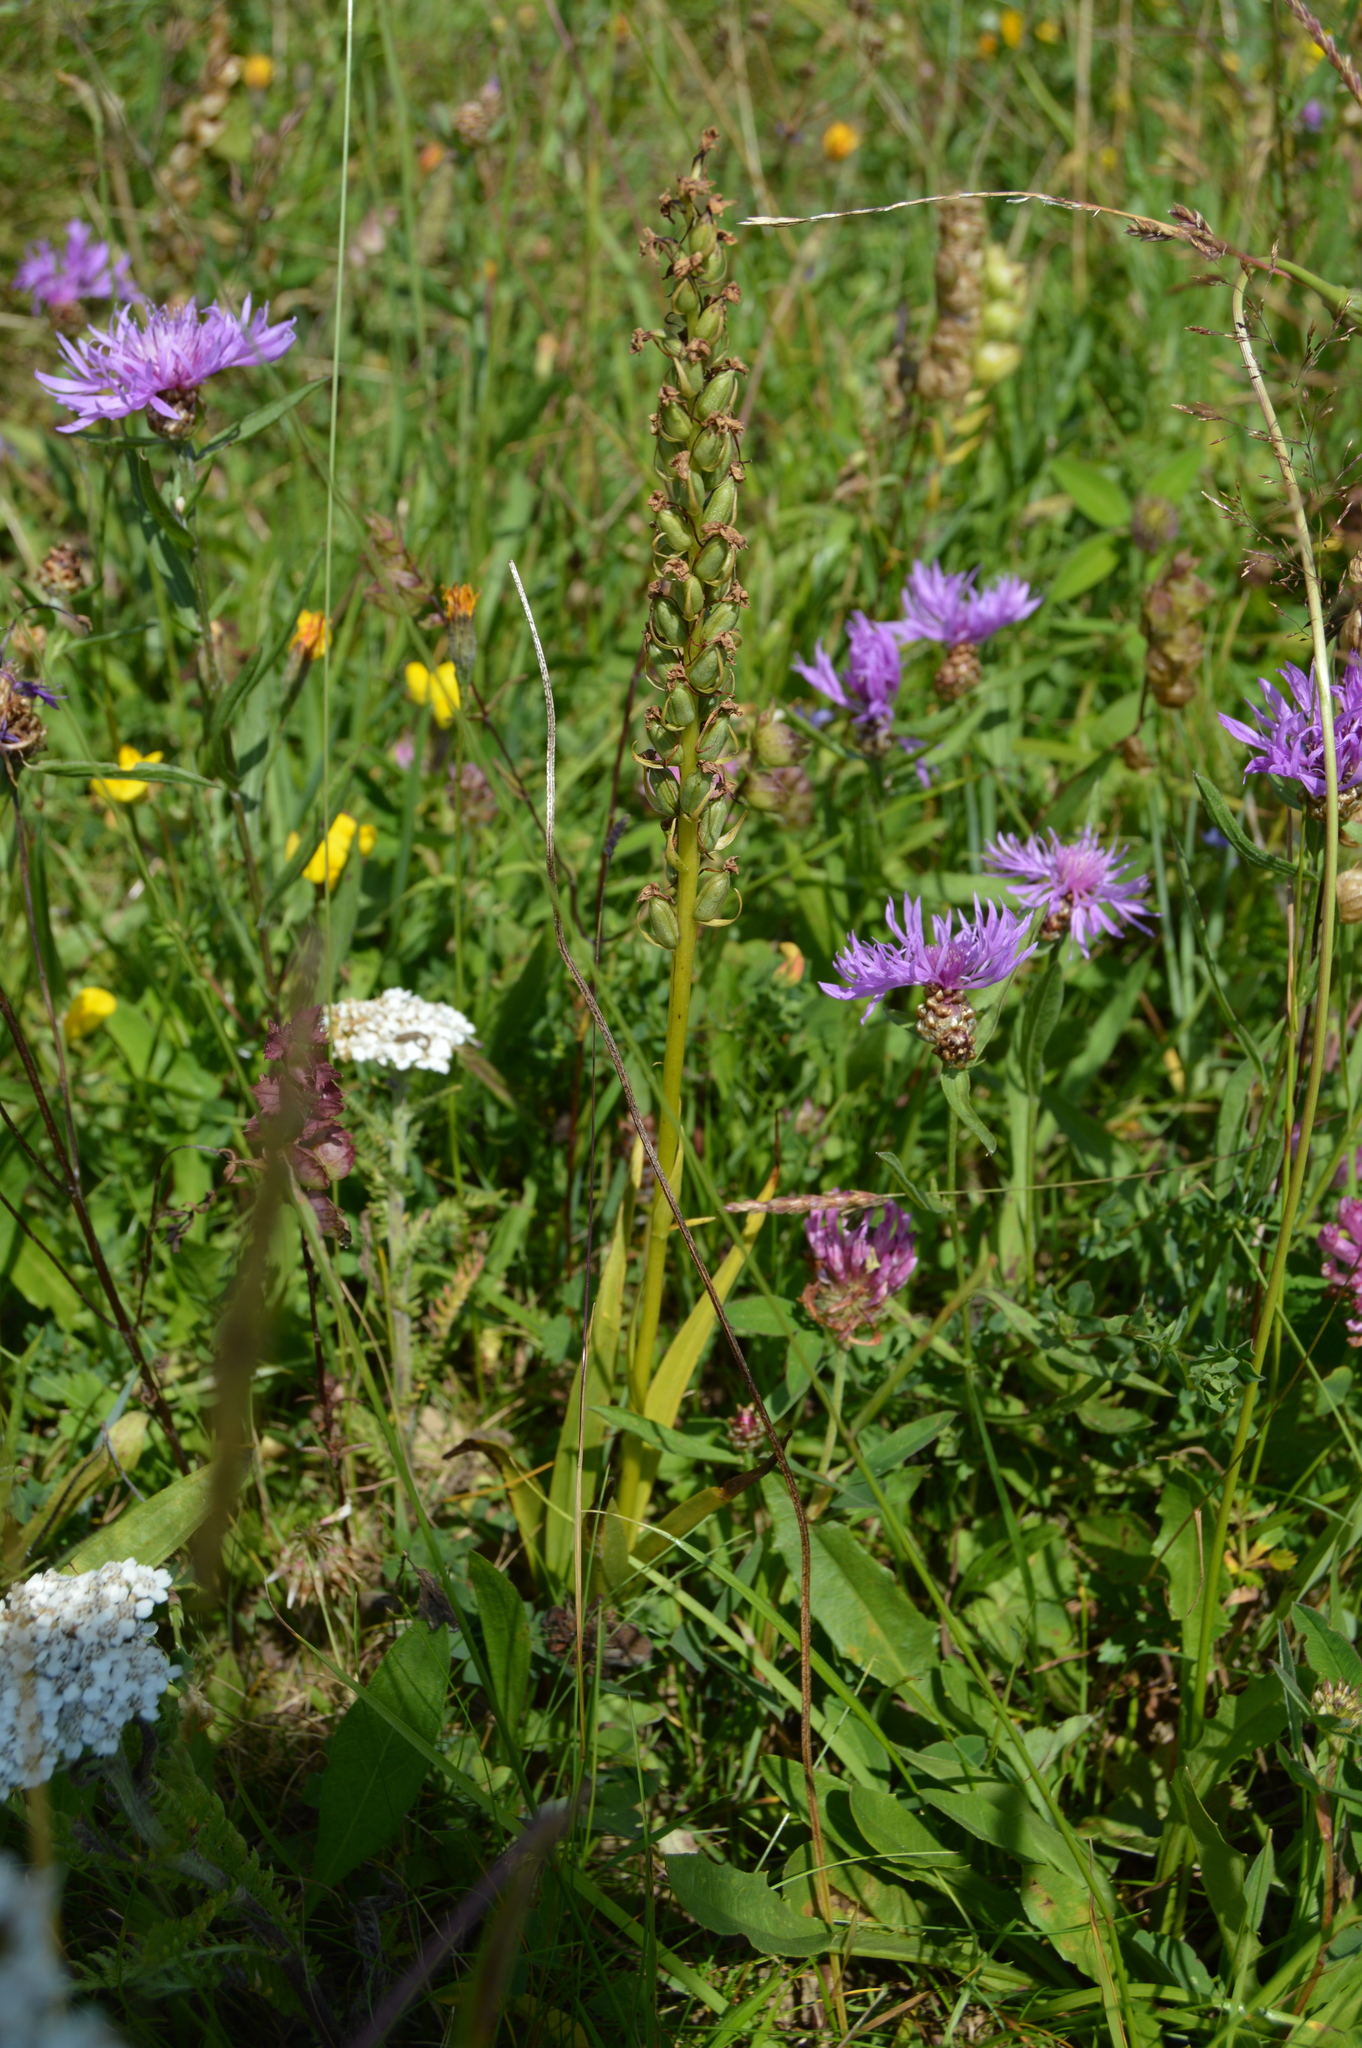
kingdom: Plantae
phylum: Tracheophyta
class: Liliopsida
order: Asparagales
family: Orchidaceae
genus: Gymnadenia
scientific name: Gymnadenia conopsea
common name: Fragrant orchid
